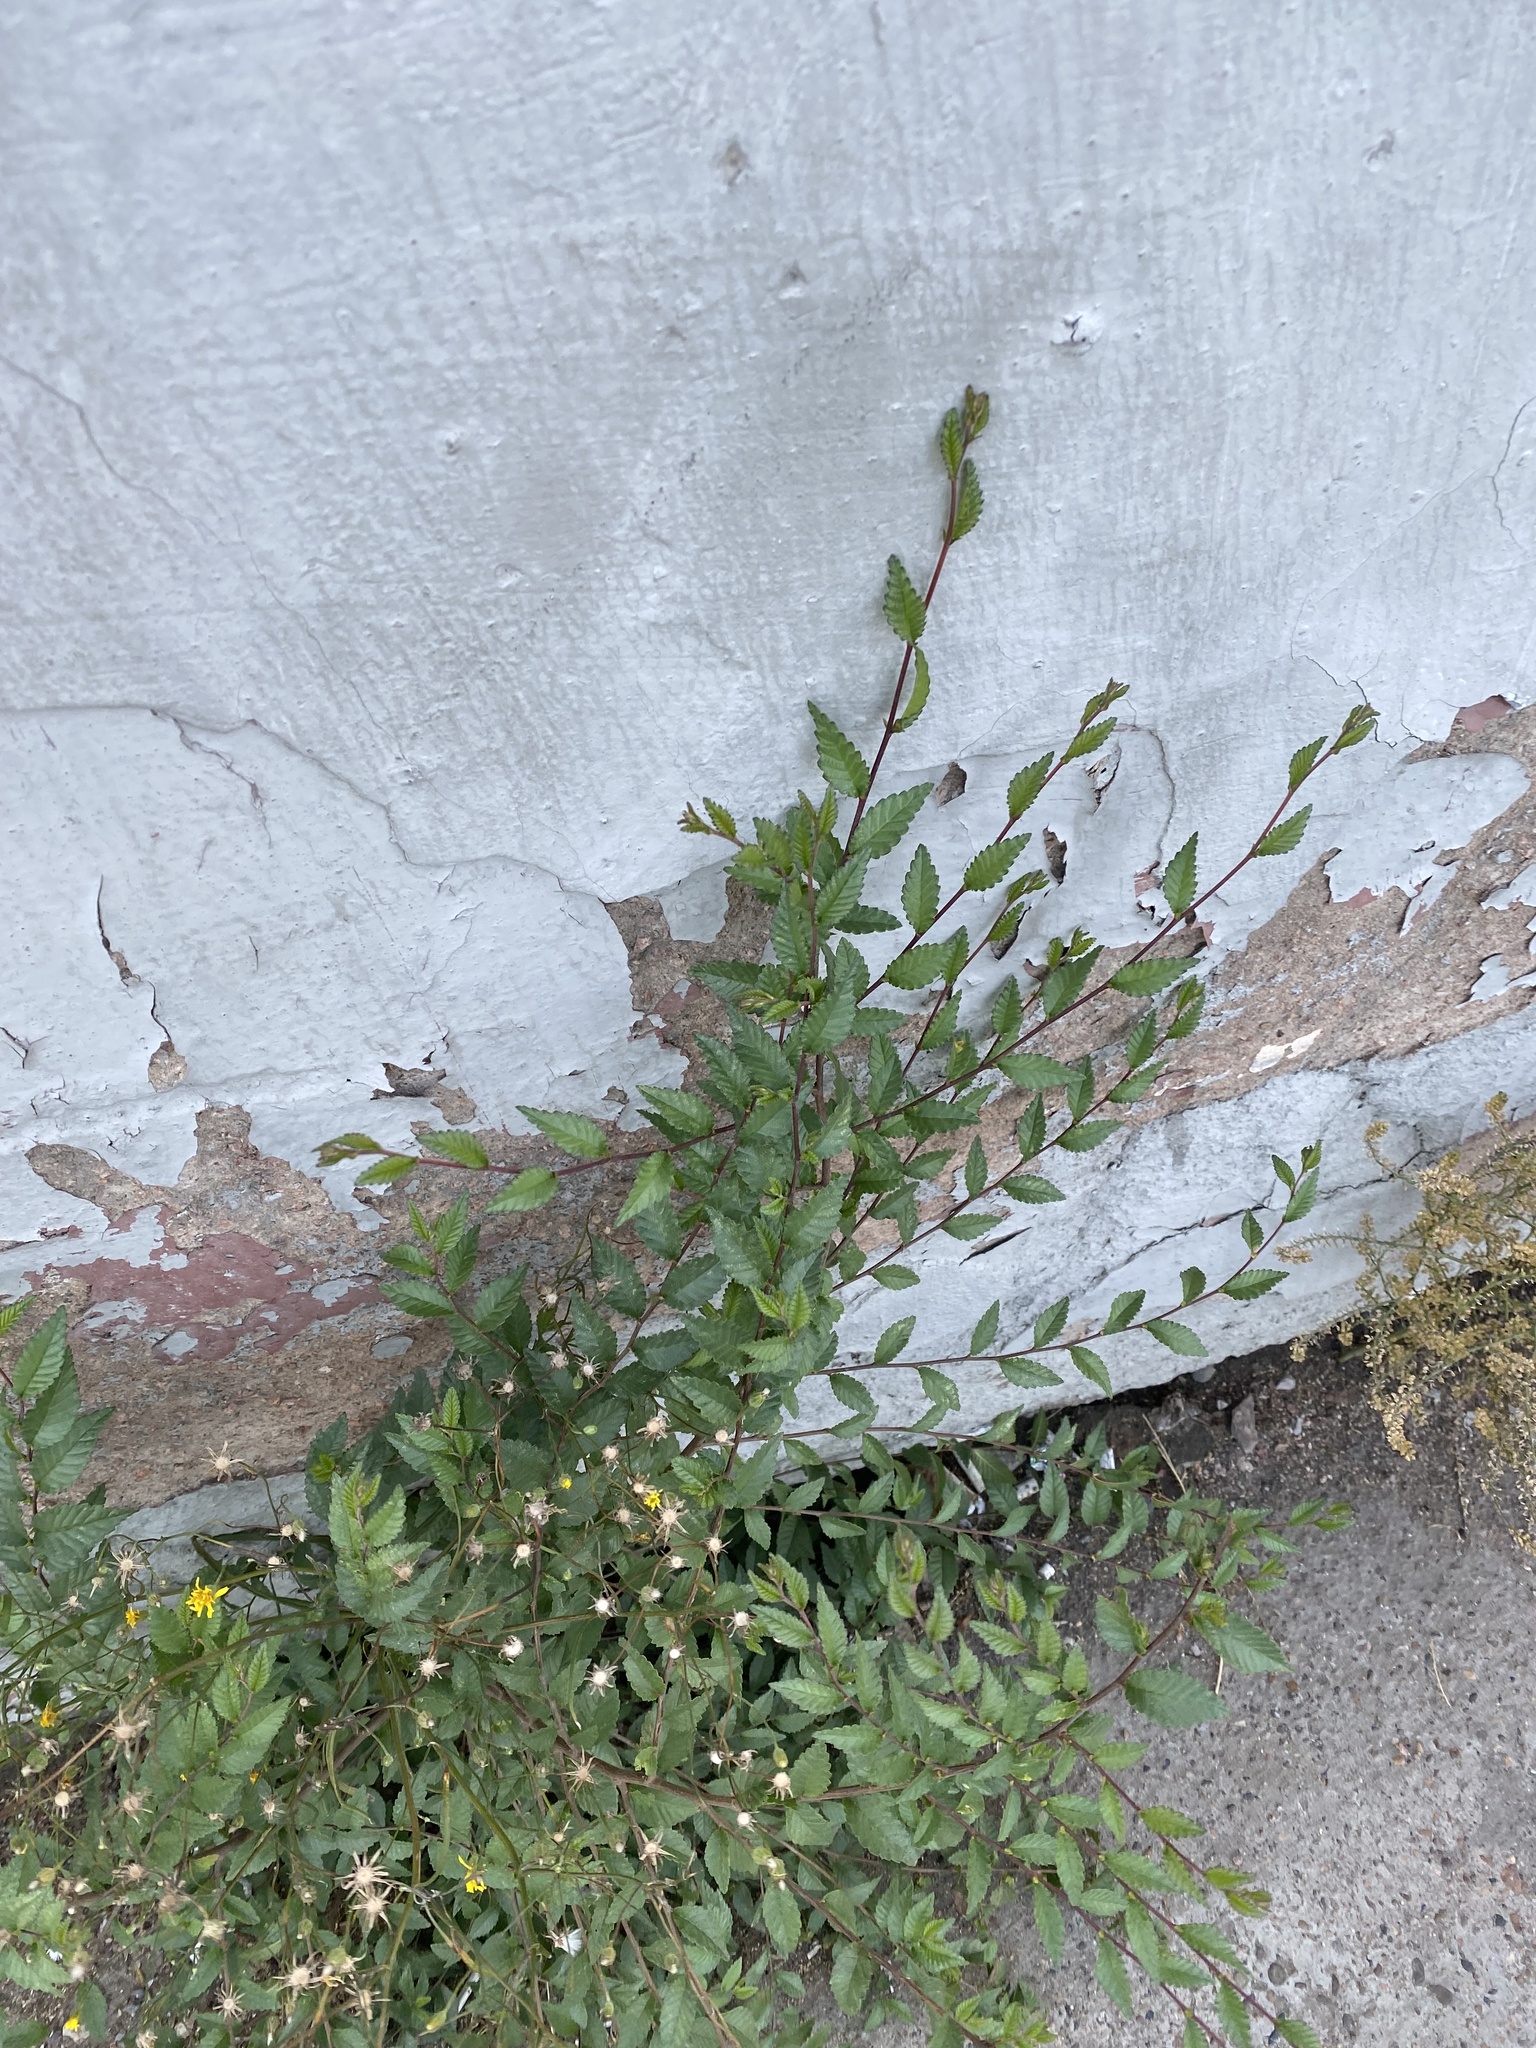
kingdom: Plantae
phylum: Tracheophyta
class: Magnoliopsida
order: Rosales
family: Ulmaceae
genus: Ulmus
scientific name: Ulmus pumila
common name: Siberian elm
